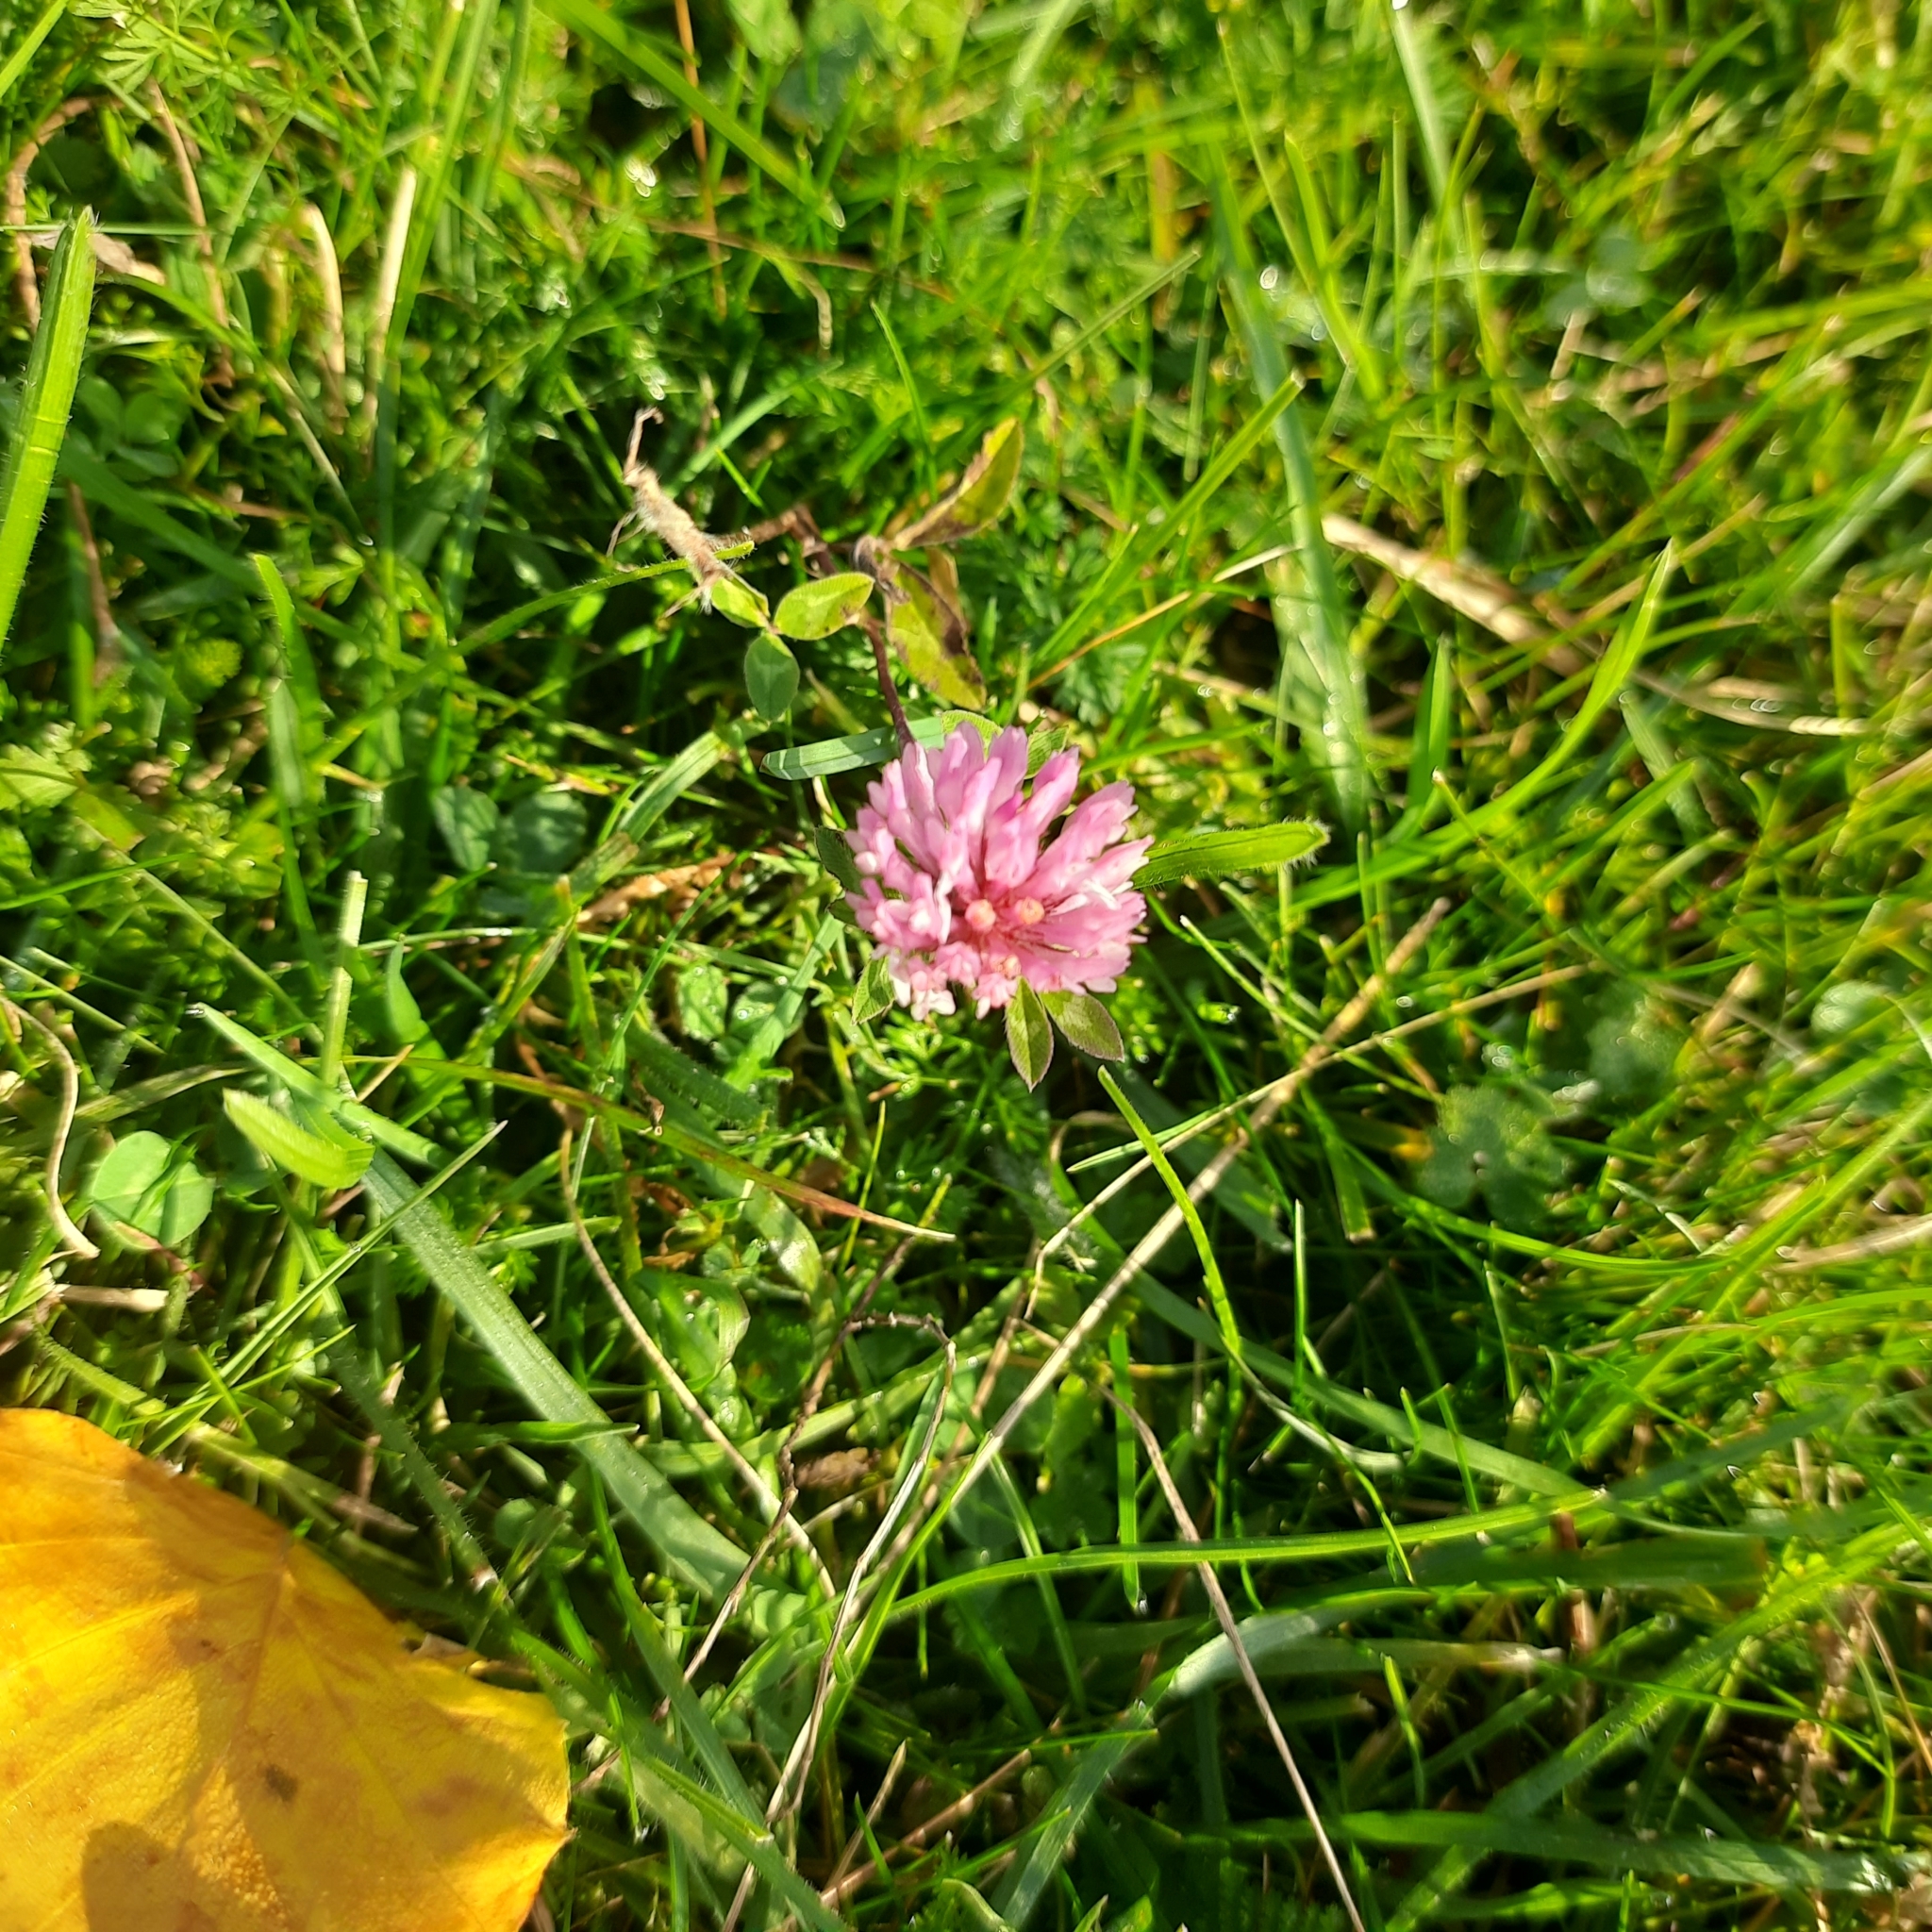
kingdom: Plantae
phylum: Tracheophyta
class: Magnoliopsida
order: Fabales
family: Fabaceae
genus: Trifolium
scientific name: Trifolium pratense
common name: Red clover
